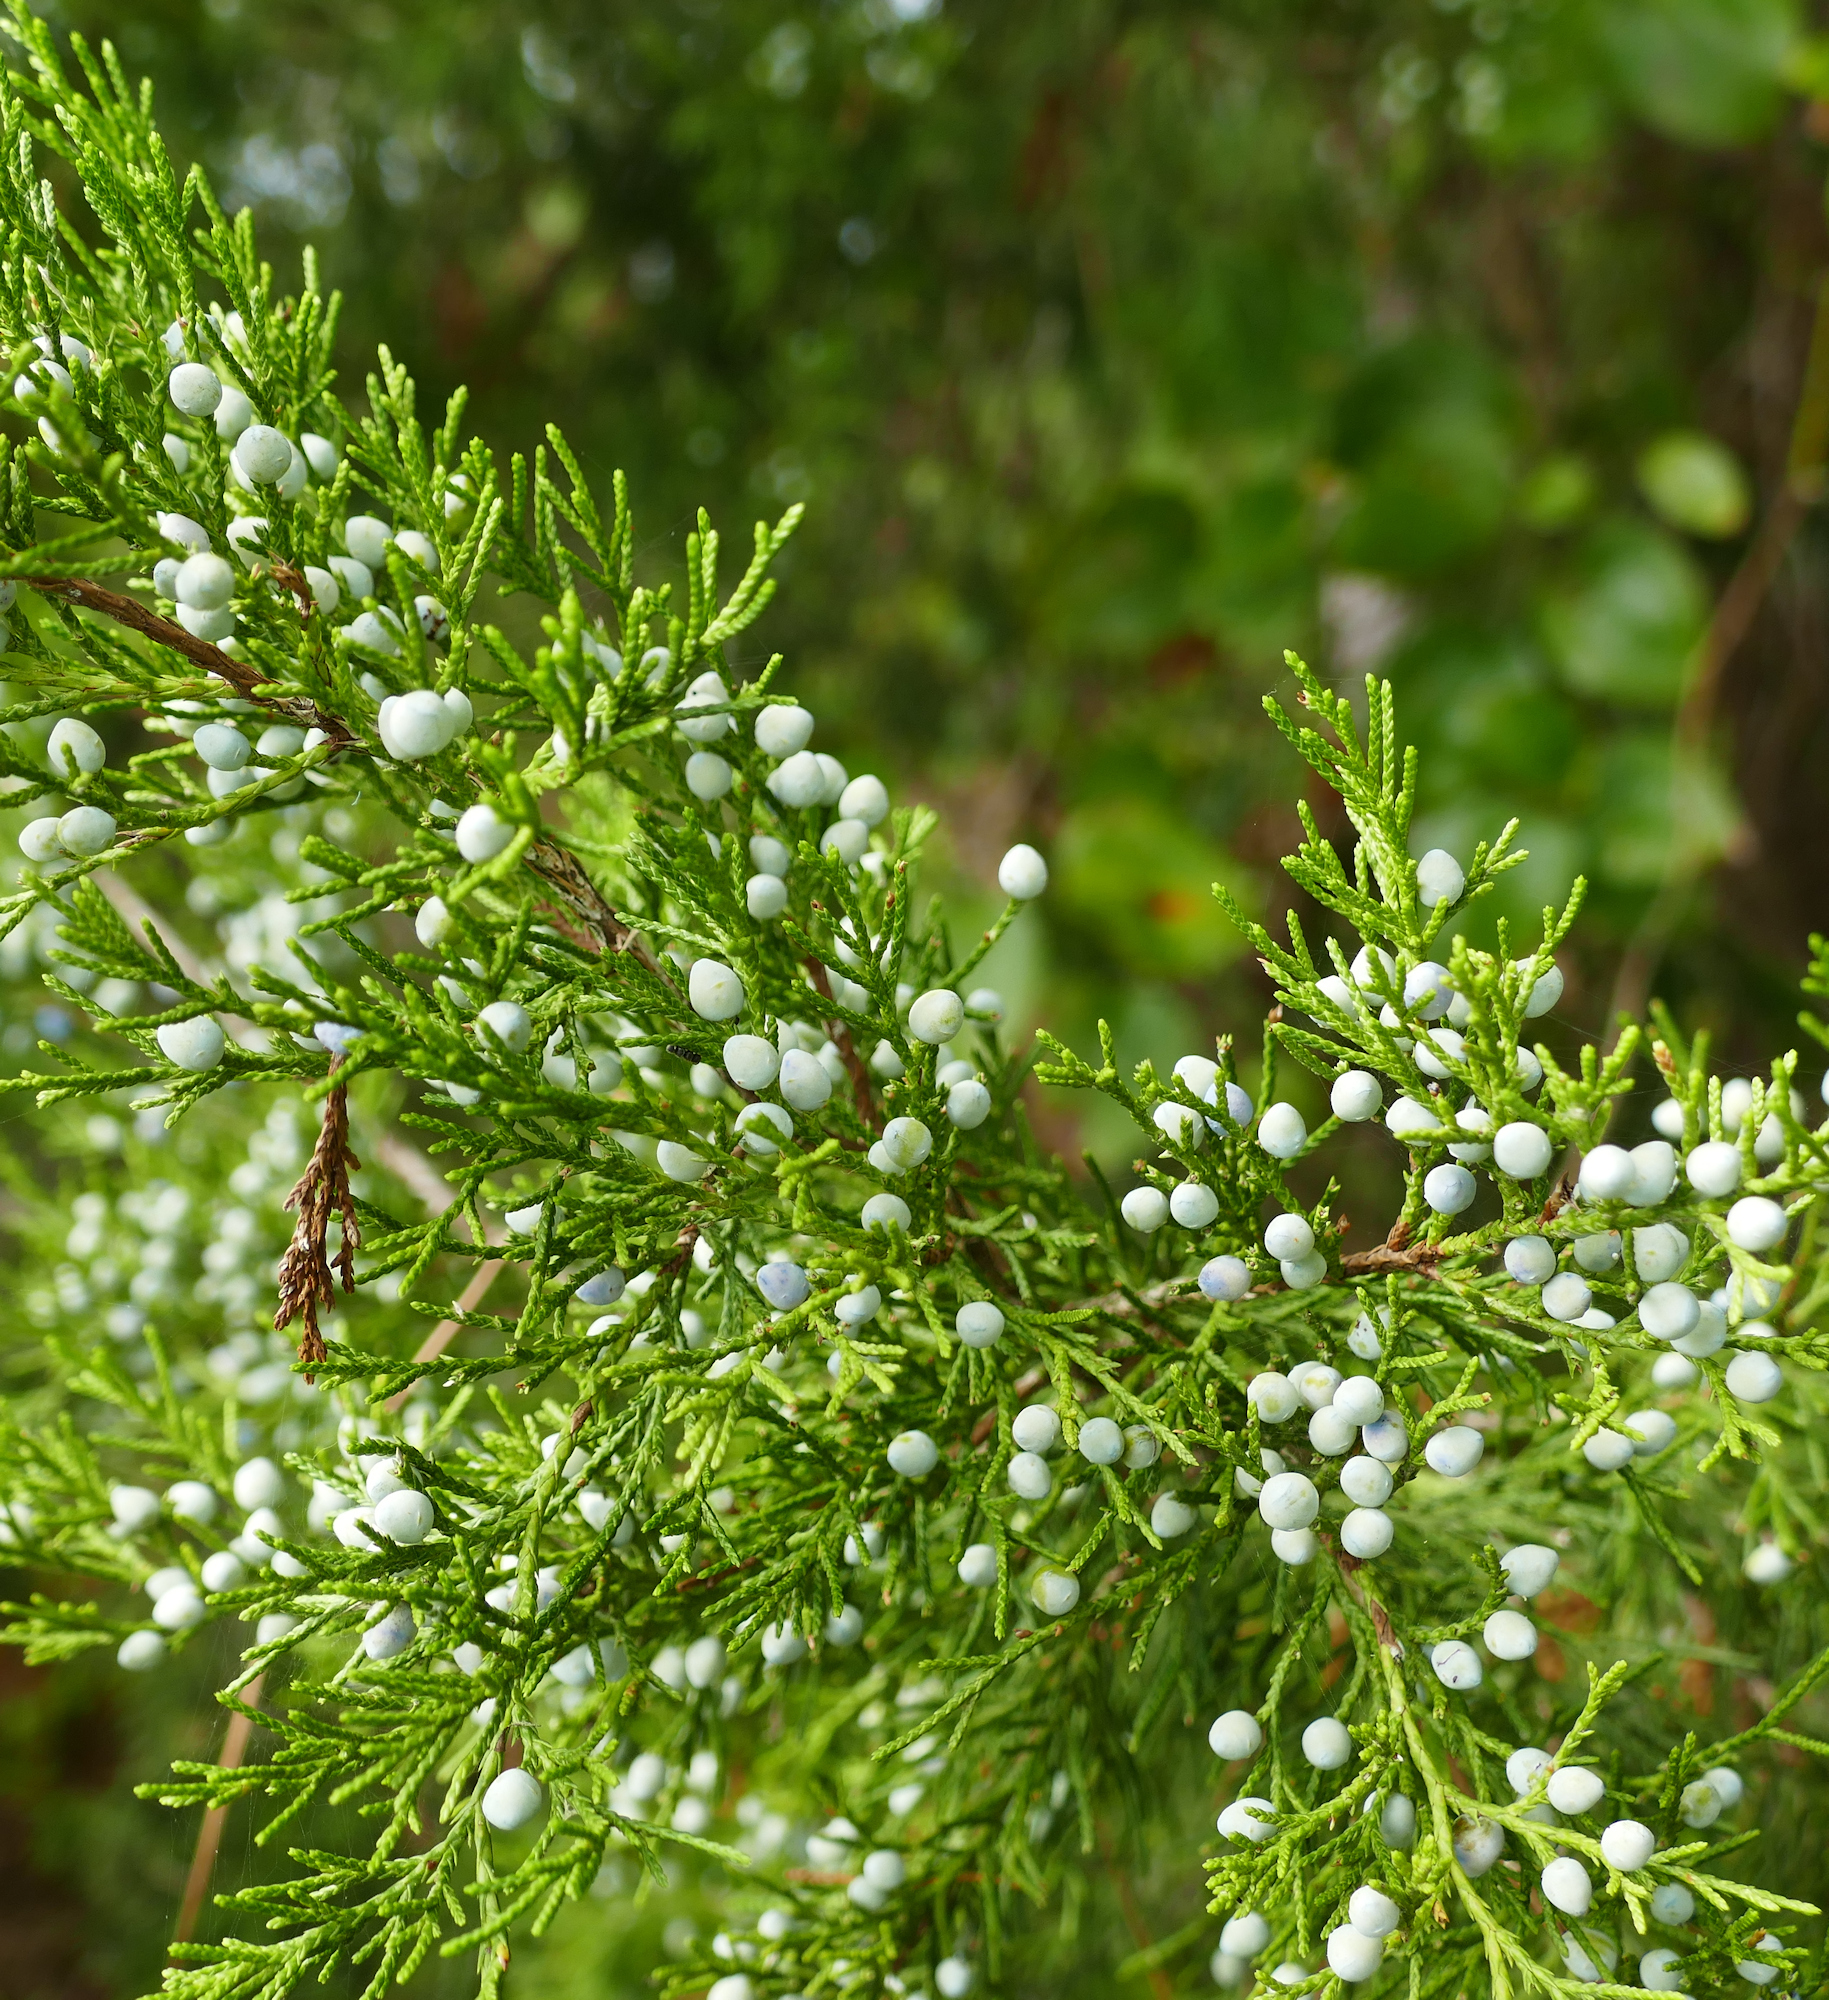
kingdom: Plantae
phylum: Tracheophyta
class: Pinopsida
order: Pinales
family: Cupressaceae
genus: Juniperus
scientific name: Juniperus virginiana
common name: Red juniper
